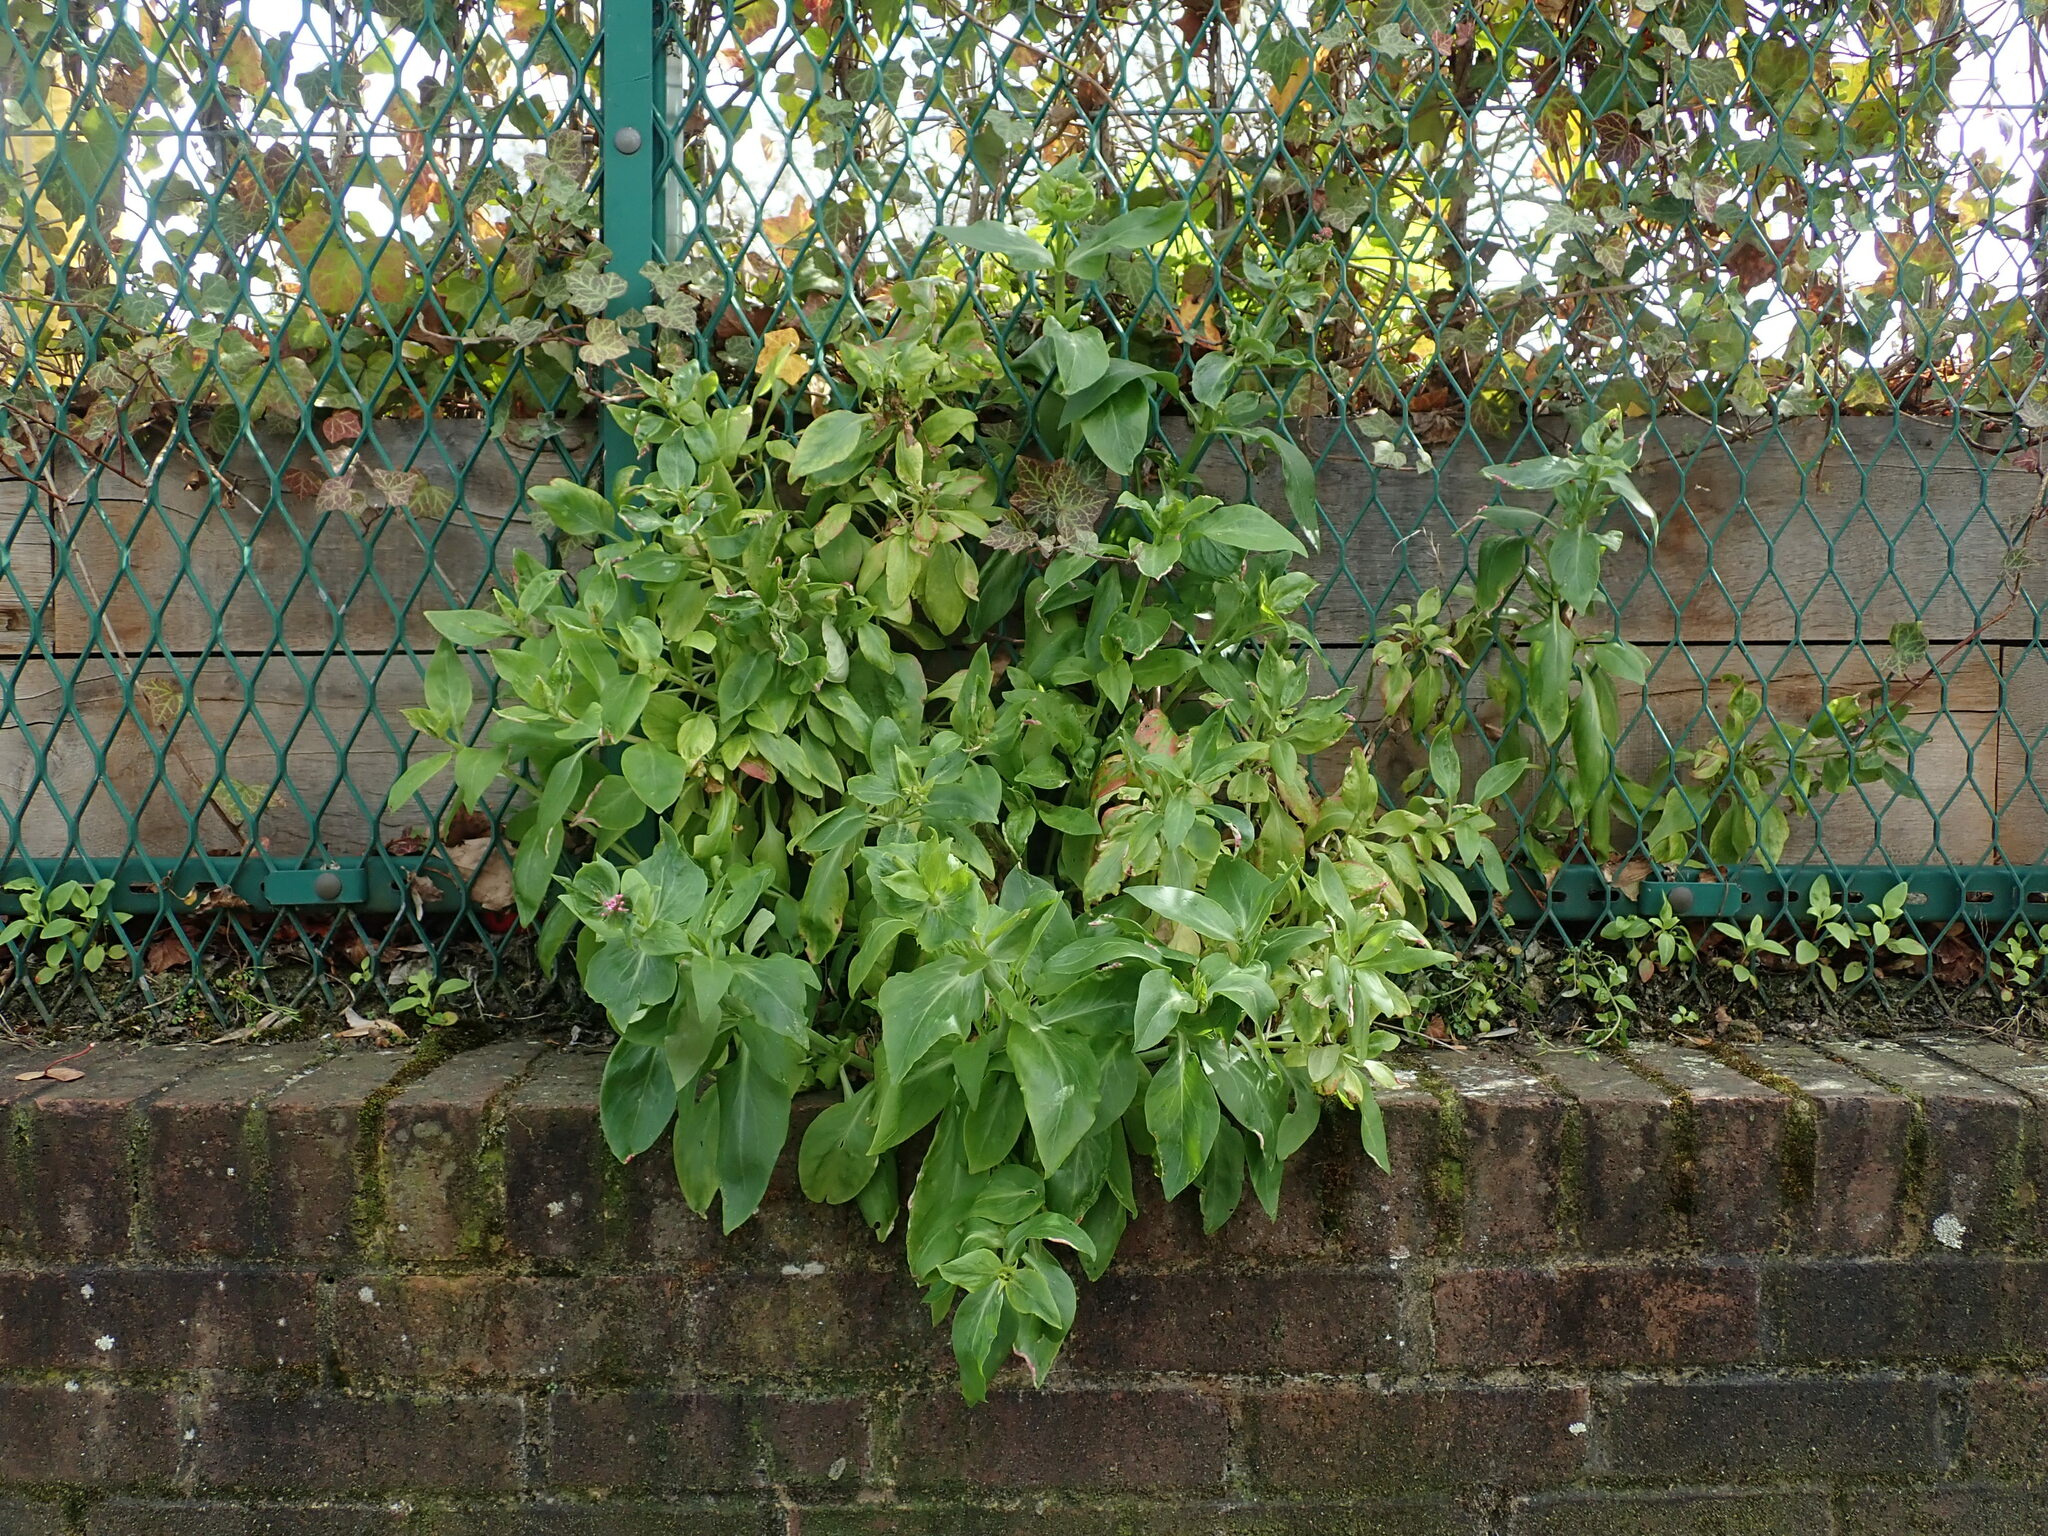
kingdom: Plantae
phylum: Tracheophyta
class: Magnoliopsida
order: Dipsacales
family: Caprifoliaceae
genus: Centranthus
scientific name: Centranthus ruber
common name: Red valerian
